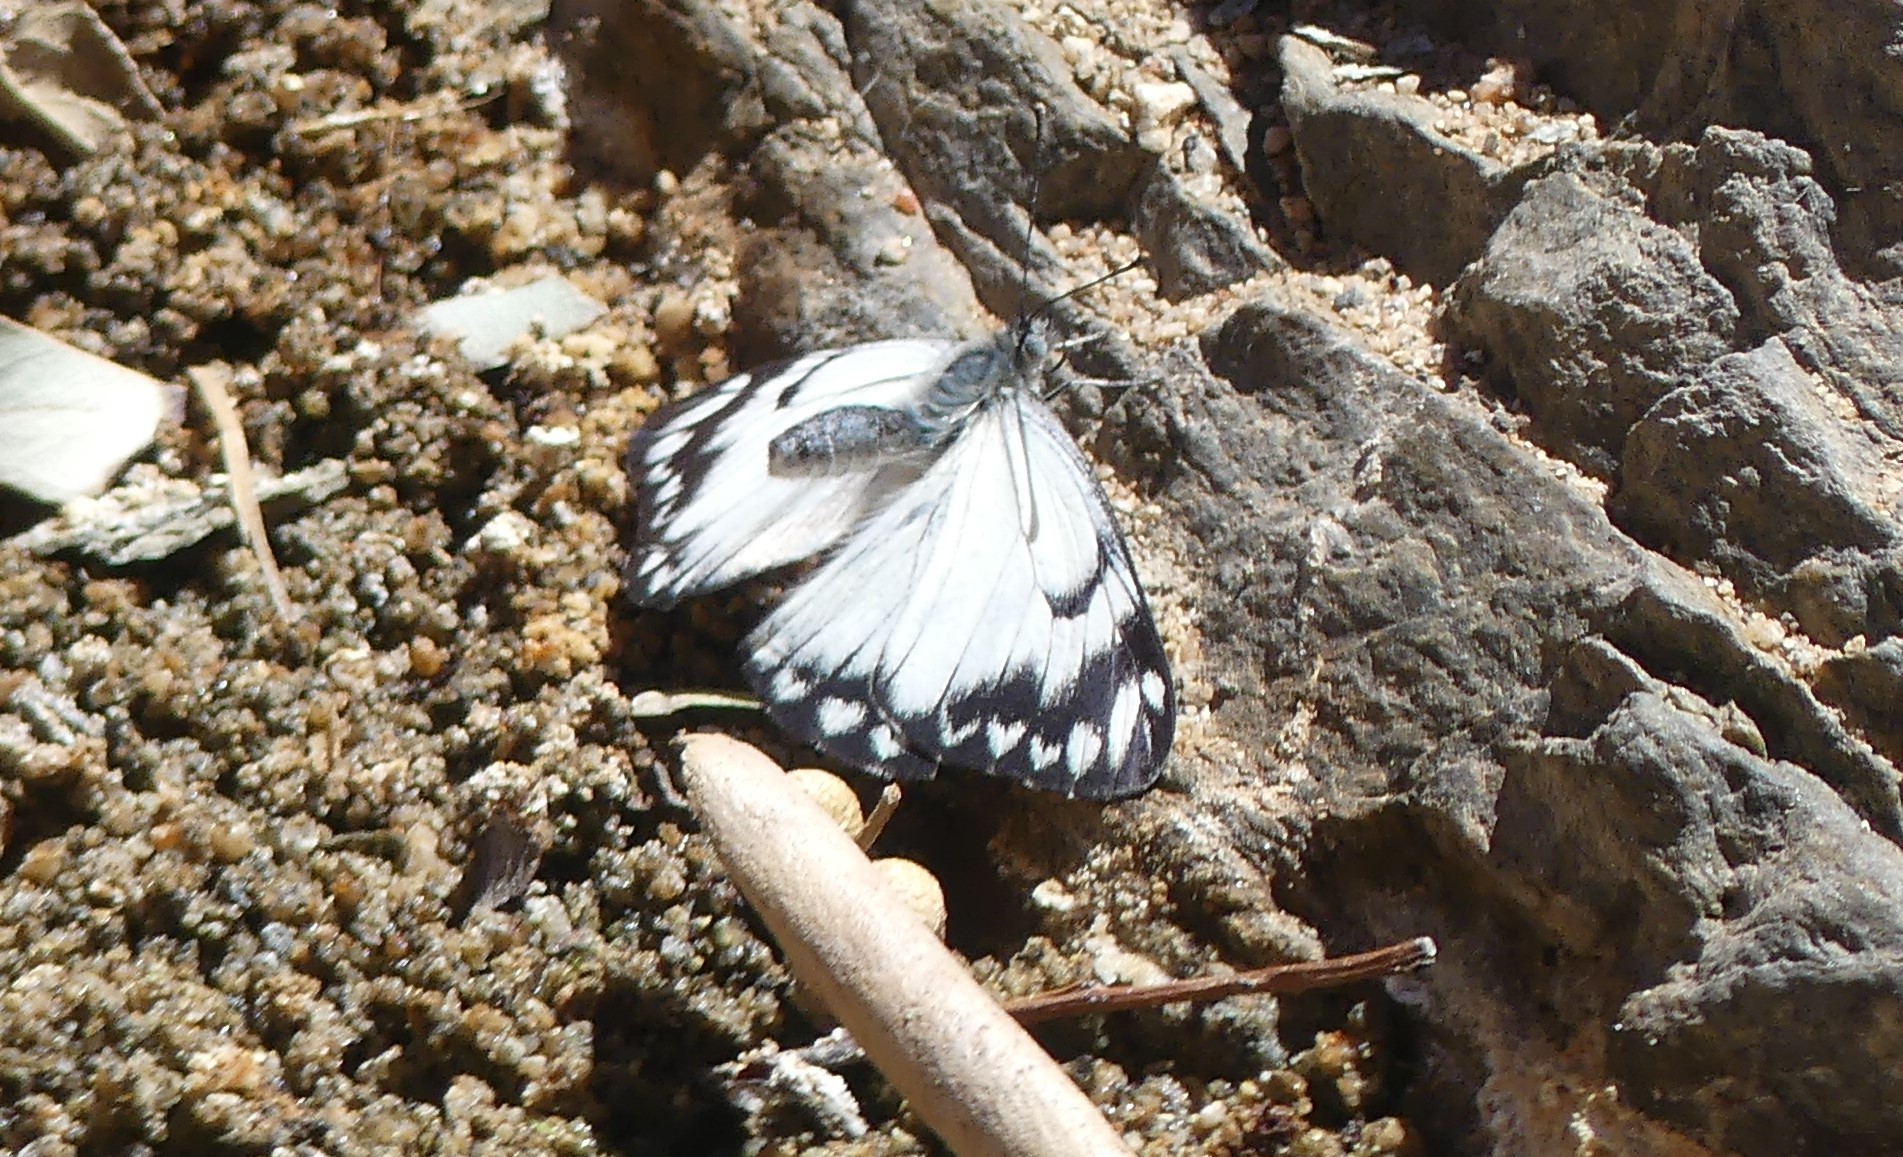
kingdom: Animalia
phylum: Arthropoda
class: Insecta
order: Lepidoptera
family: Pieridae
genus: Belenois
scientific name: Belenois java
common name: Caper white
